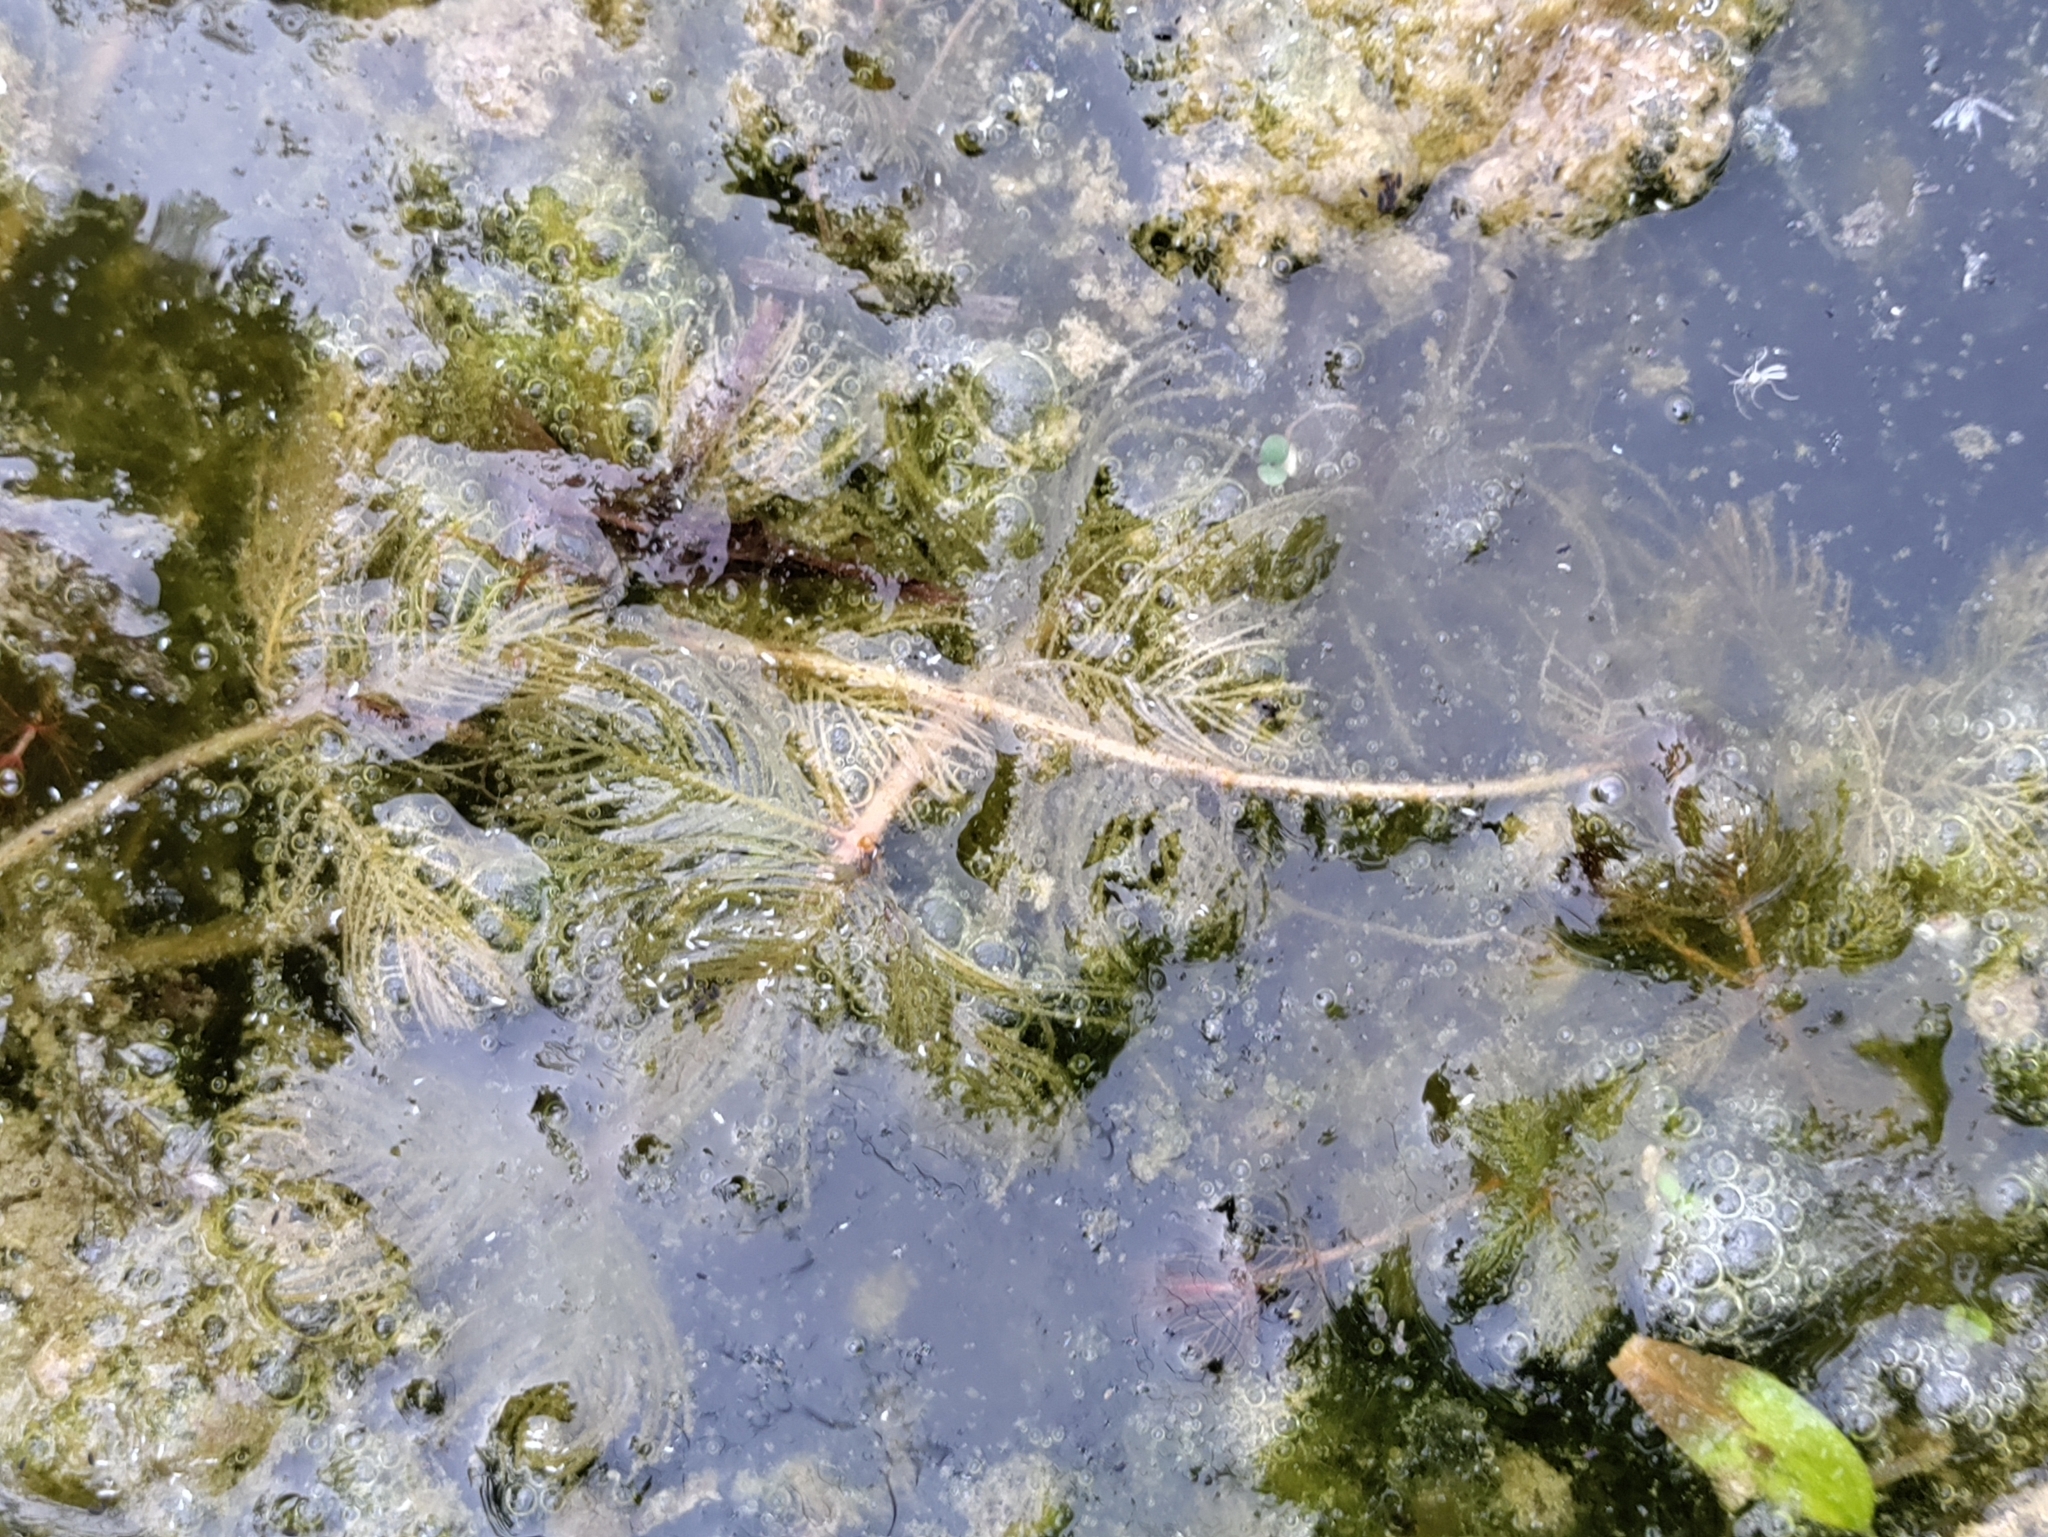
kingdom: Plantae
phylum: Tracheophyta
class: Magnoliopsida
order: Saxifragales
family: Haloragaceae
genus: Myriophyllum
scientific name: Myriophyllum spicatum
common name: Spiked water-milfoil
